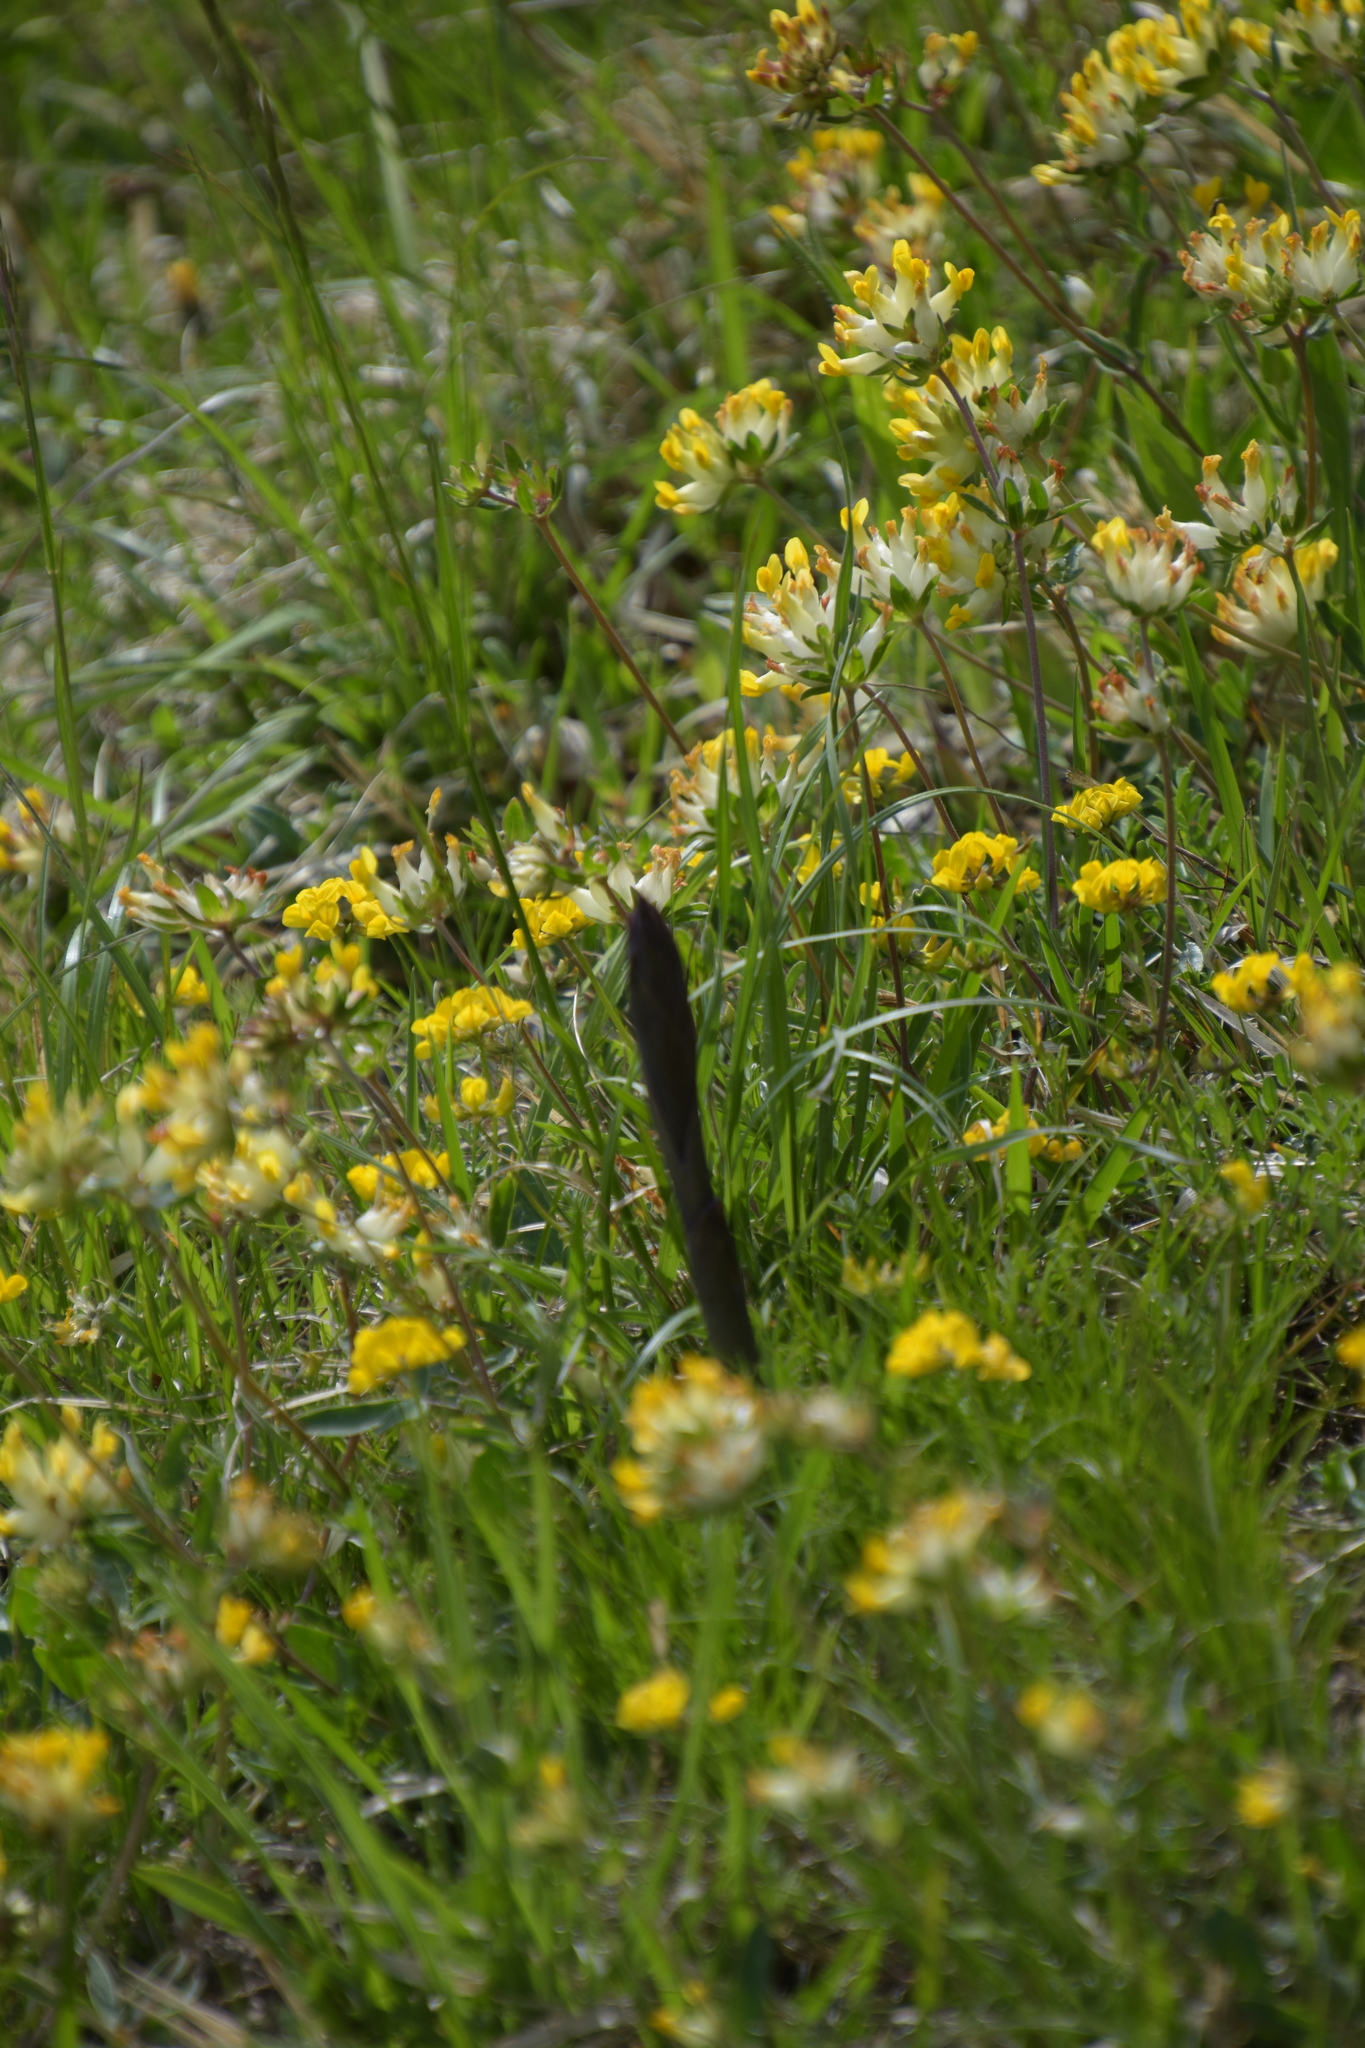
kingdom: Plantae
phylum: Tracheophyta
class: Liliopsida
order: Asparagales
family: Orchidaceae
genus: Limodorum
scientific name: Limodorum abortivum
